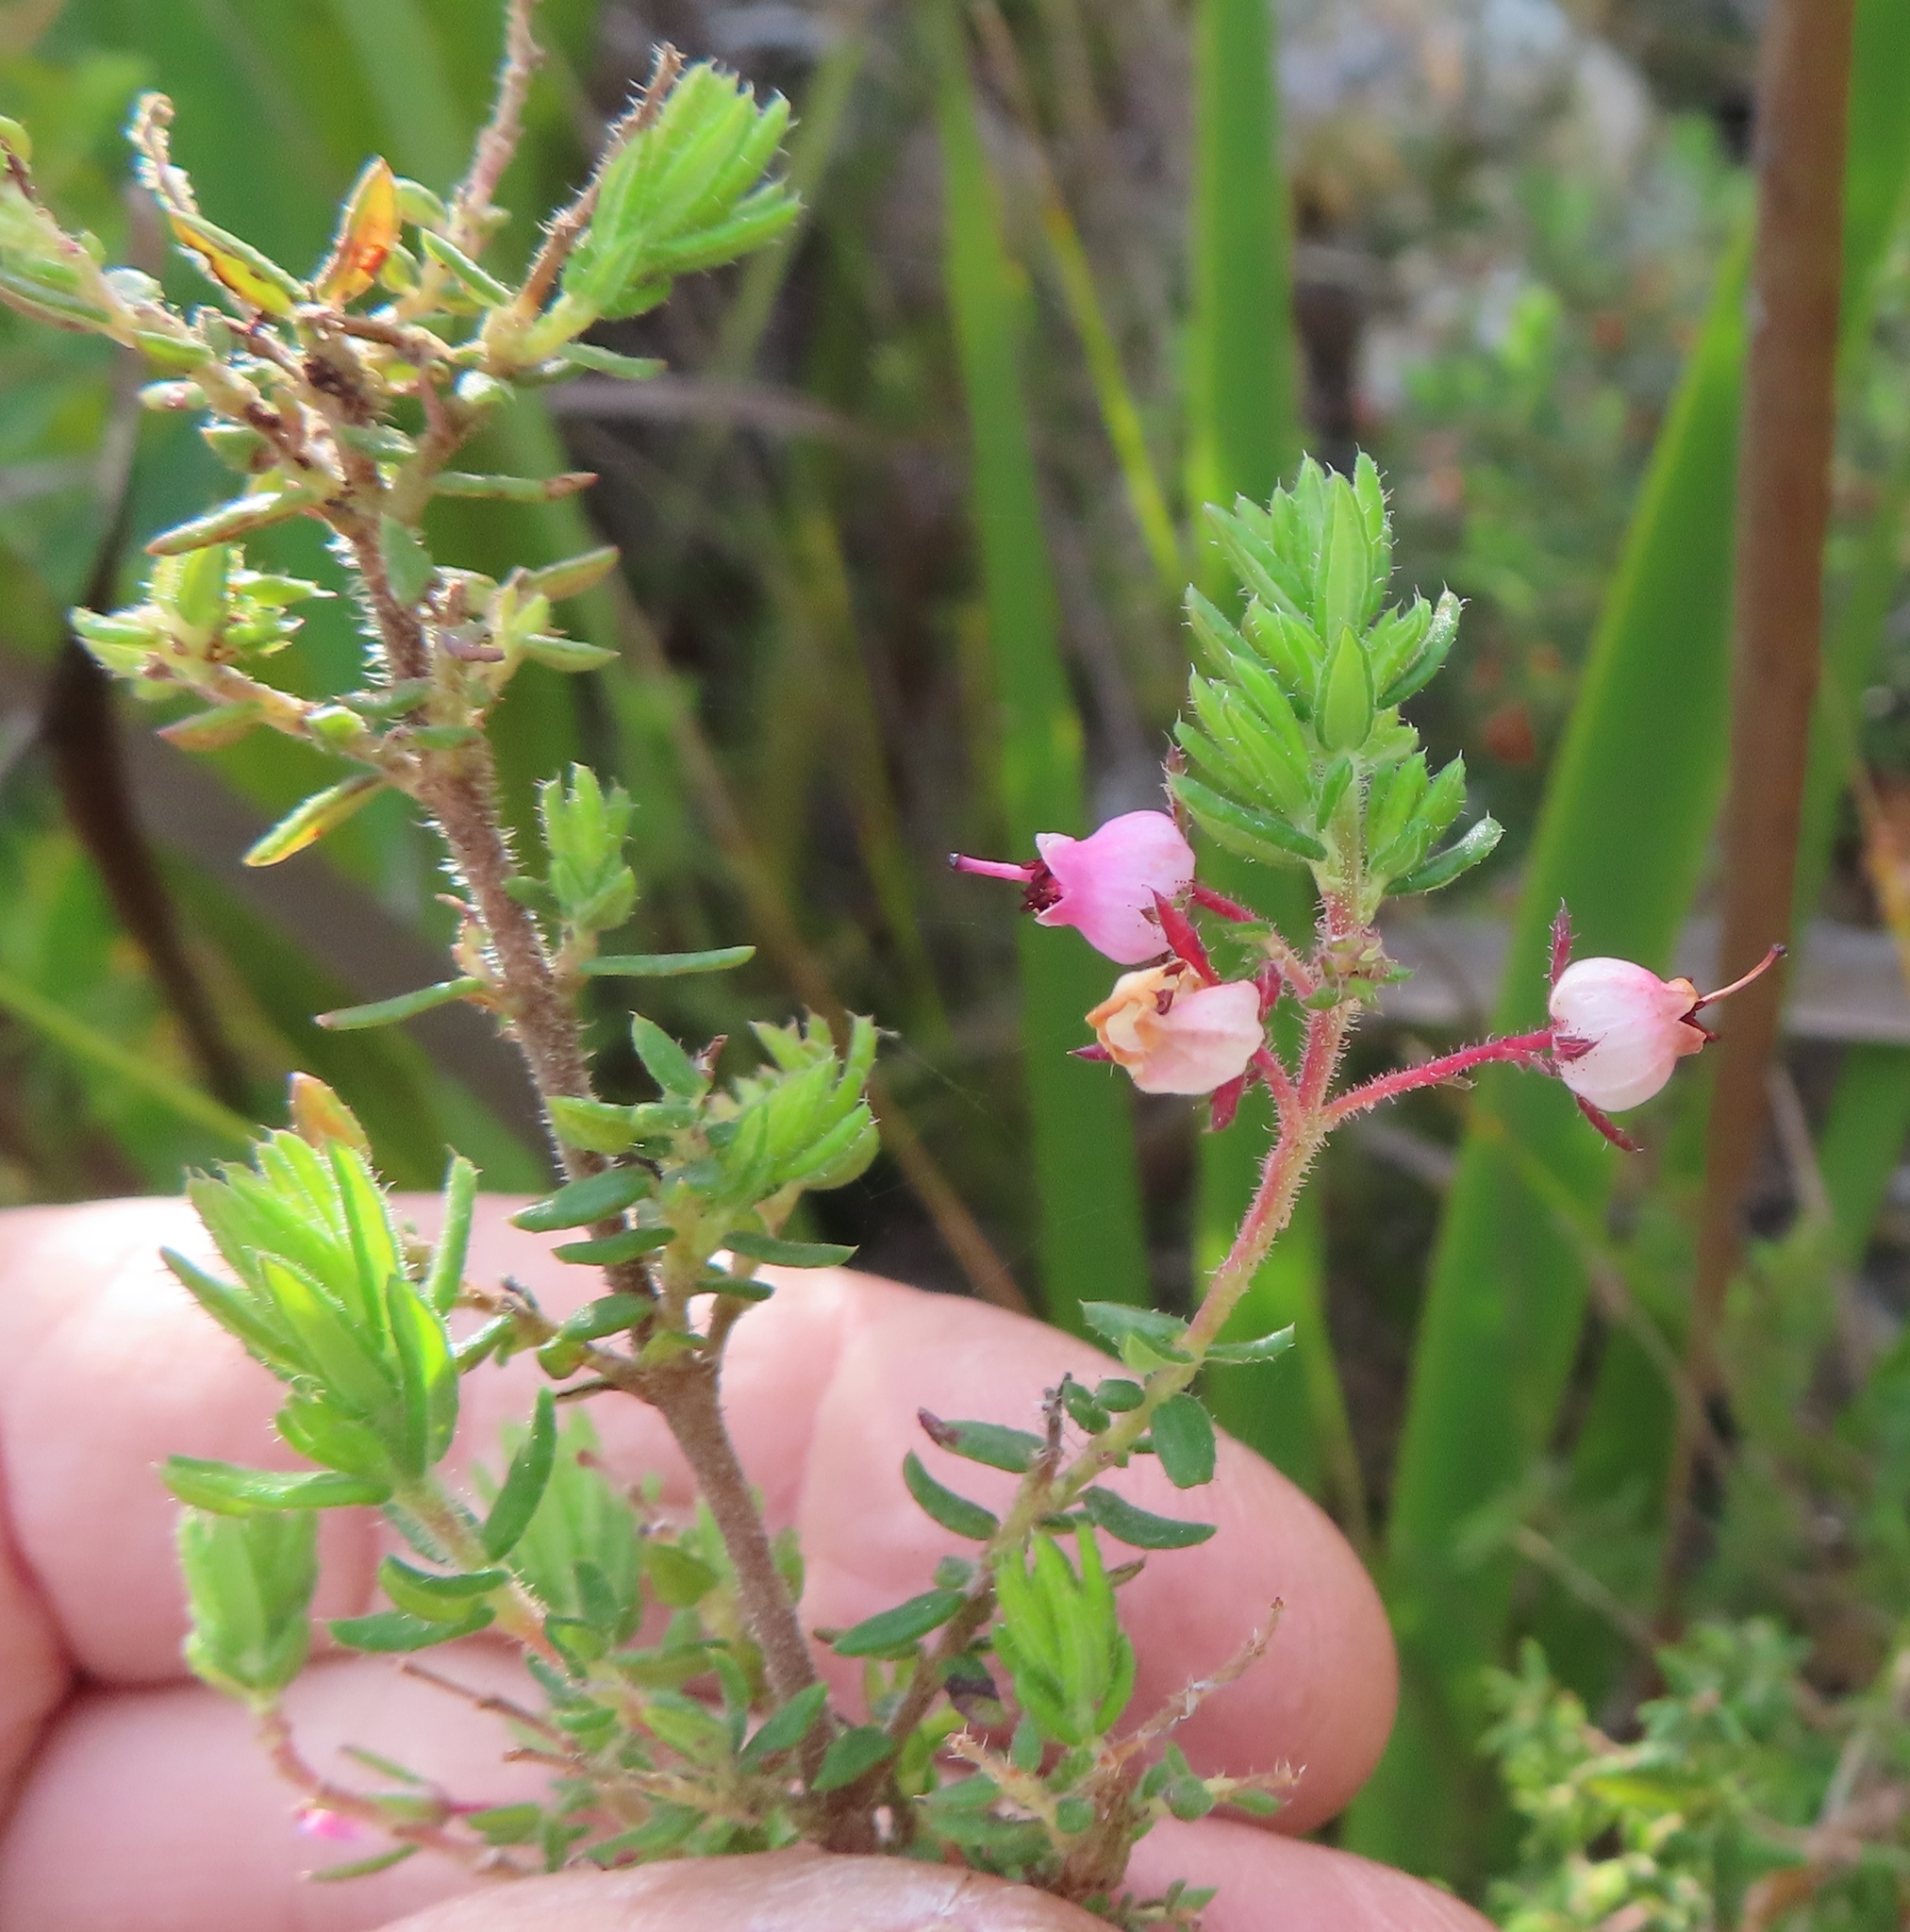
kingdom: Plantae
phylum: Tracheophyta
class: Magnoliopsida
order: Ericales
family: Ericaceae
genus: Erica
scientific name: Erica hirta
